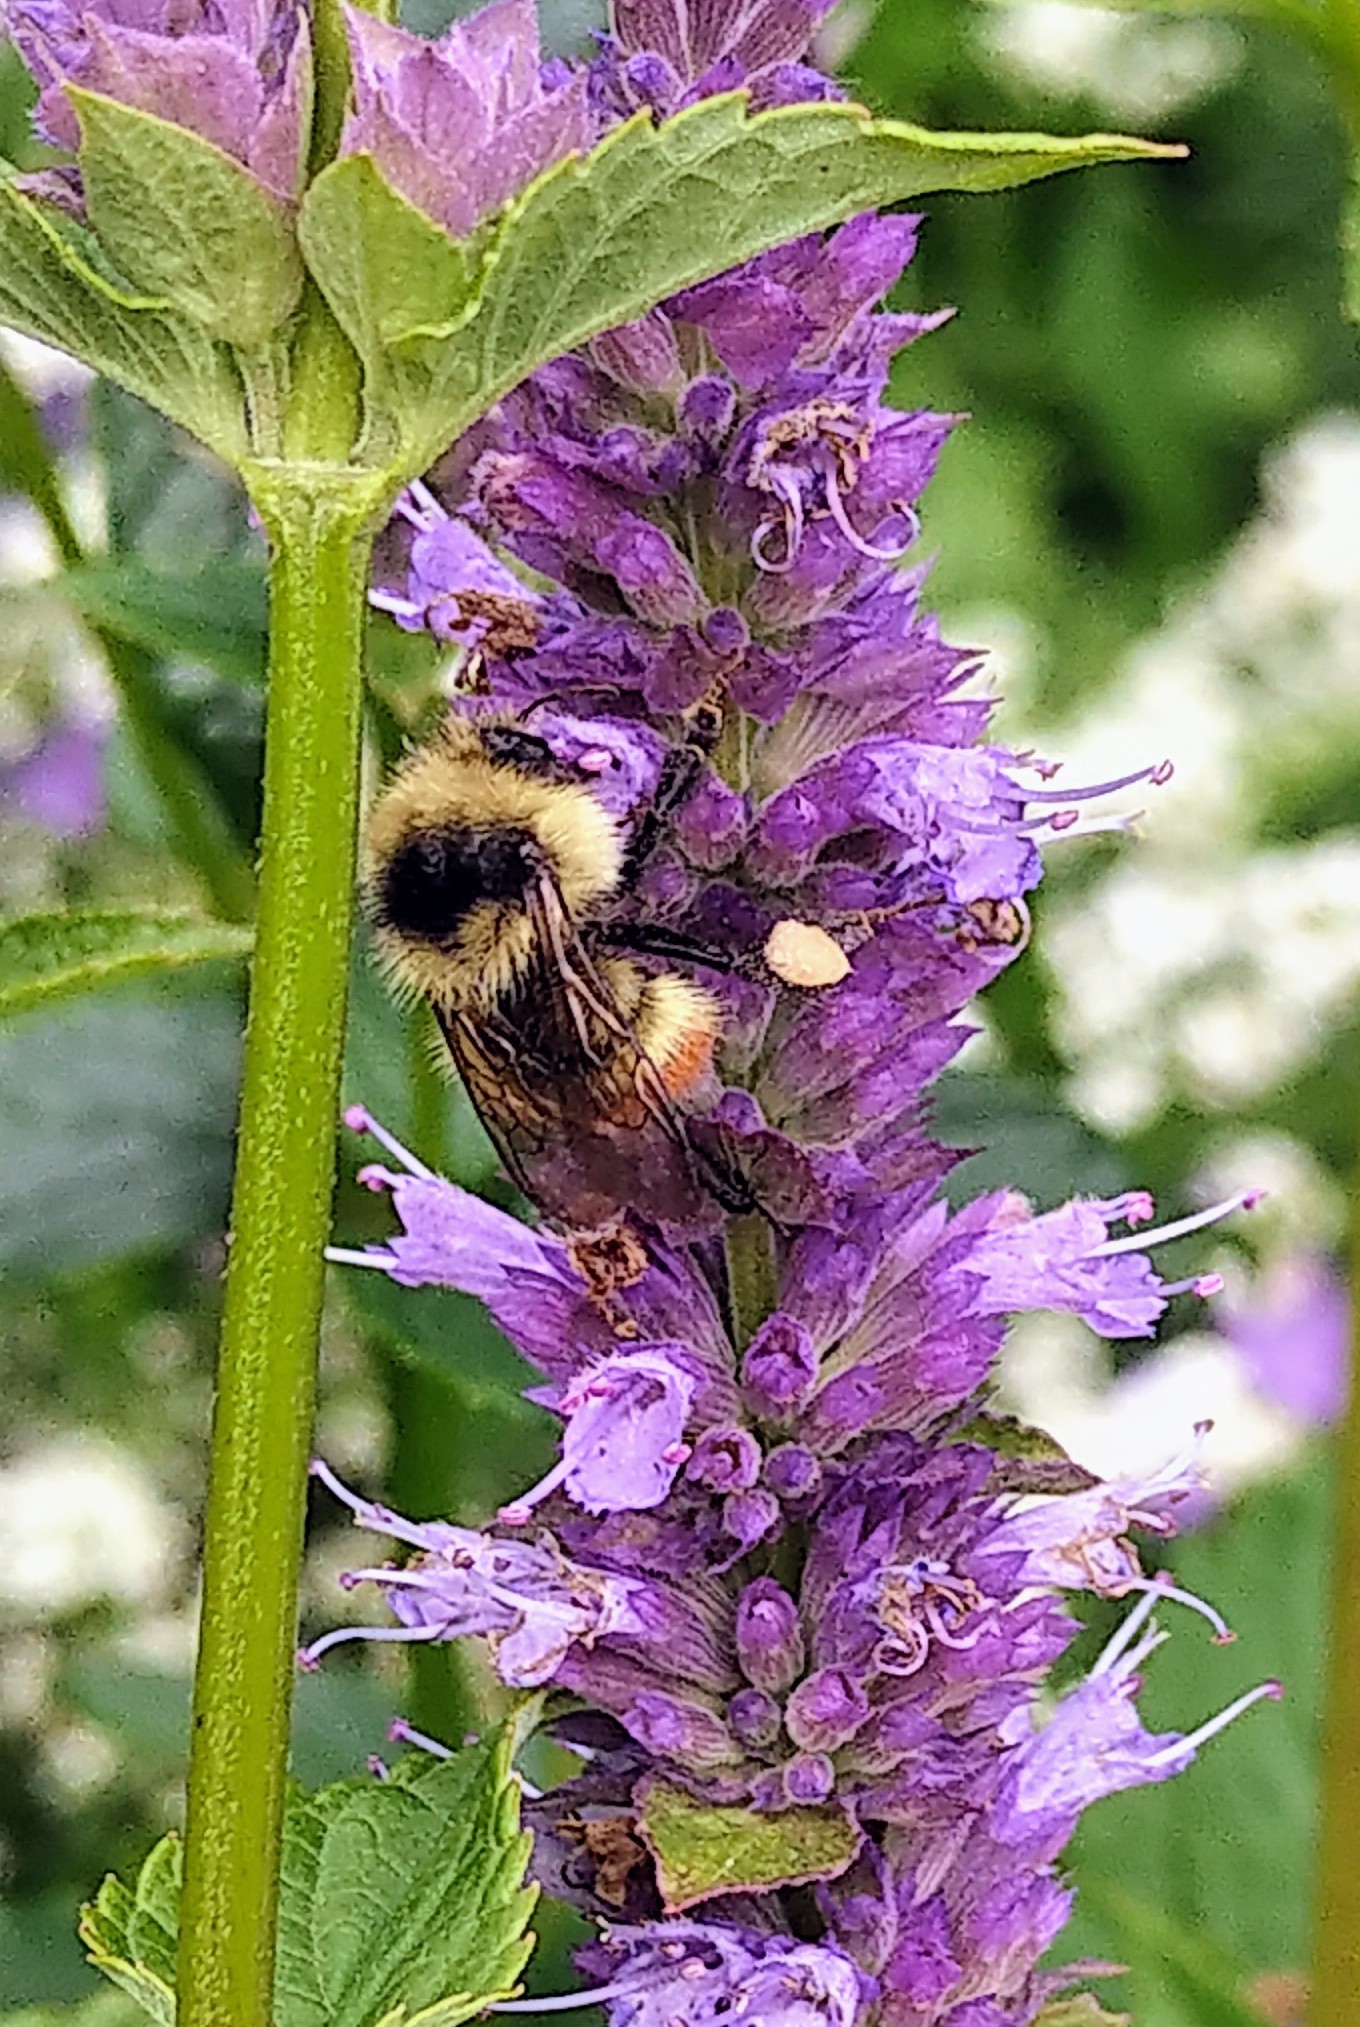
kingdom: Animalia
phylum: Arthropoda
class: Insecta
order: Hymenoptera
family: Apidae
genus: Bombus
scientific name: Bombus flavifrons
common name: Yellow head bumble bee
